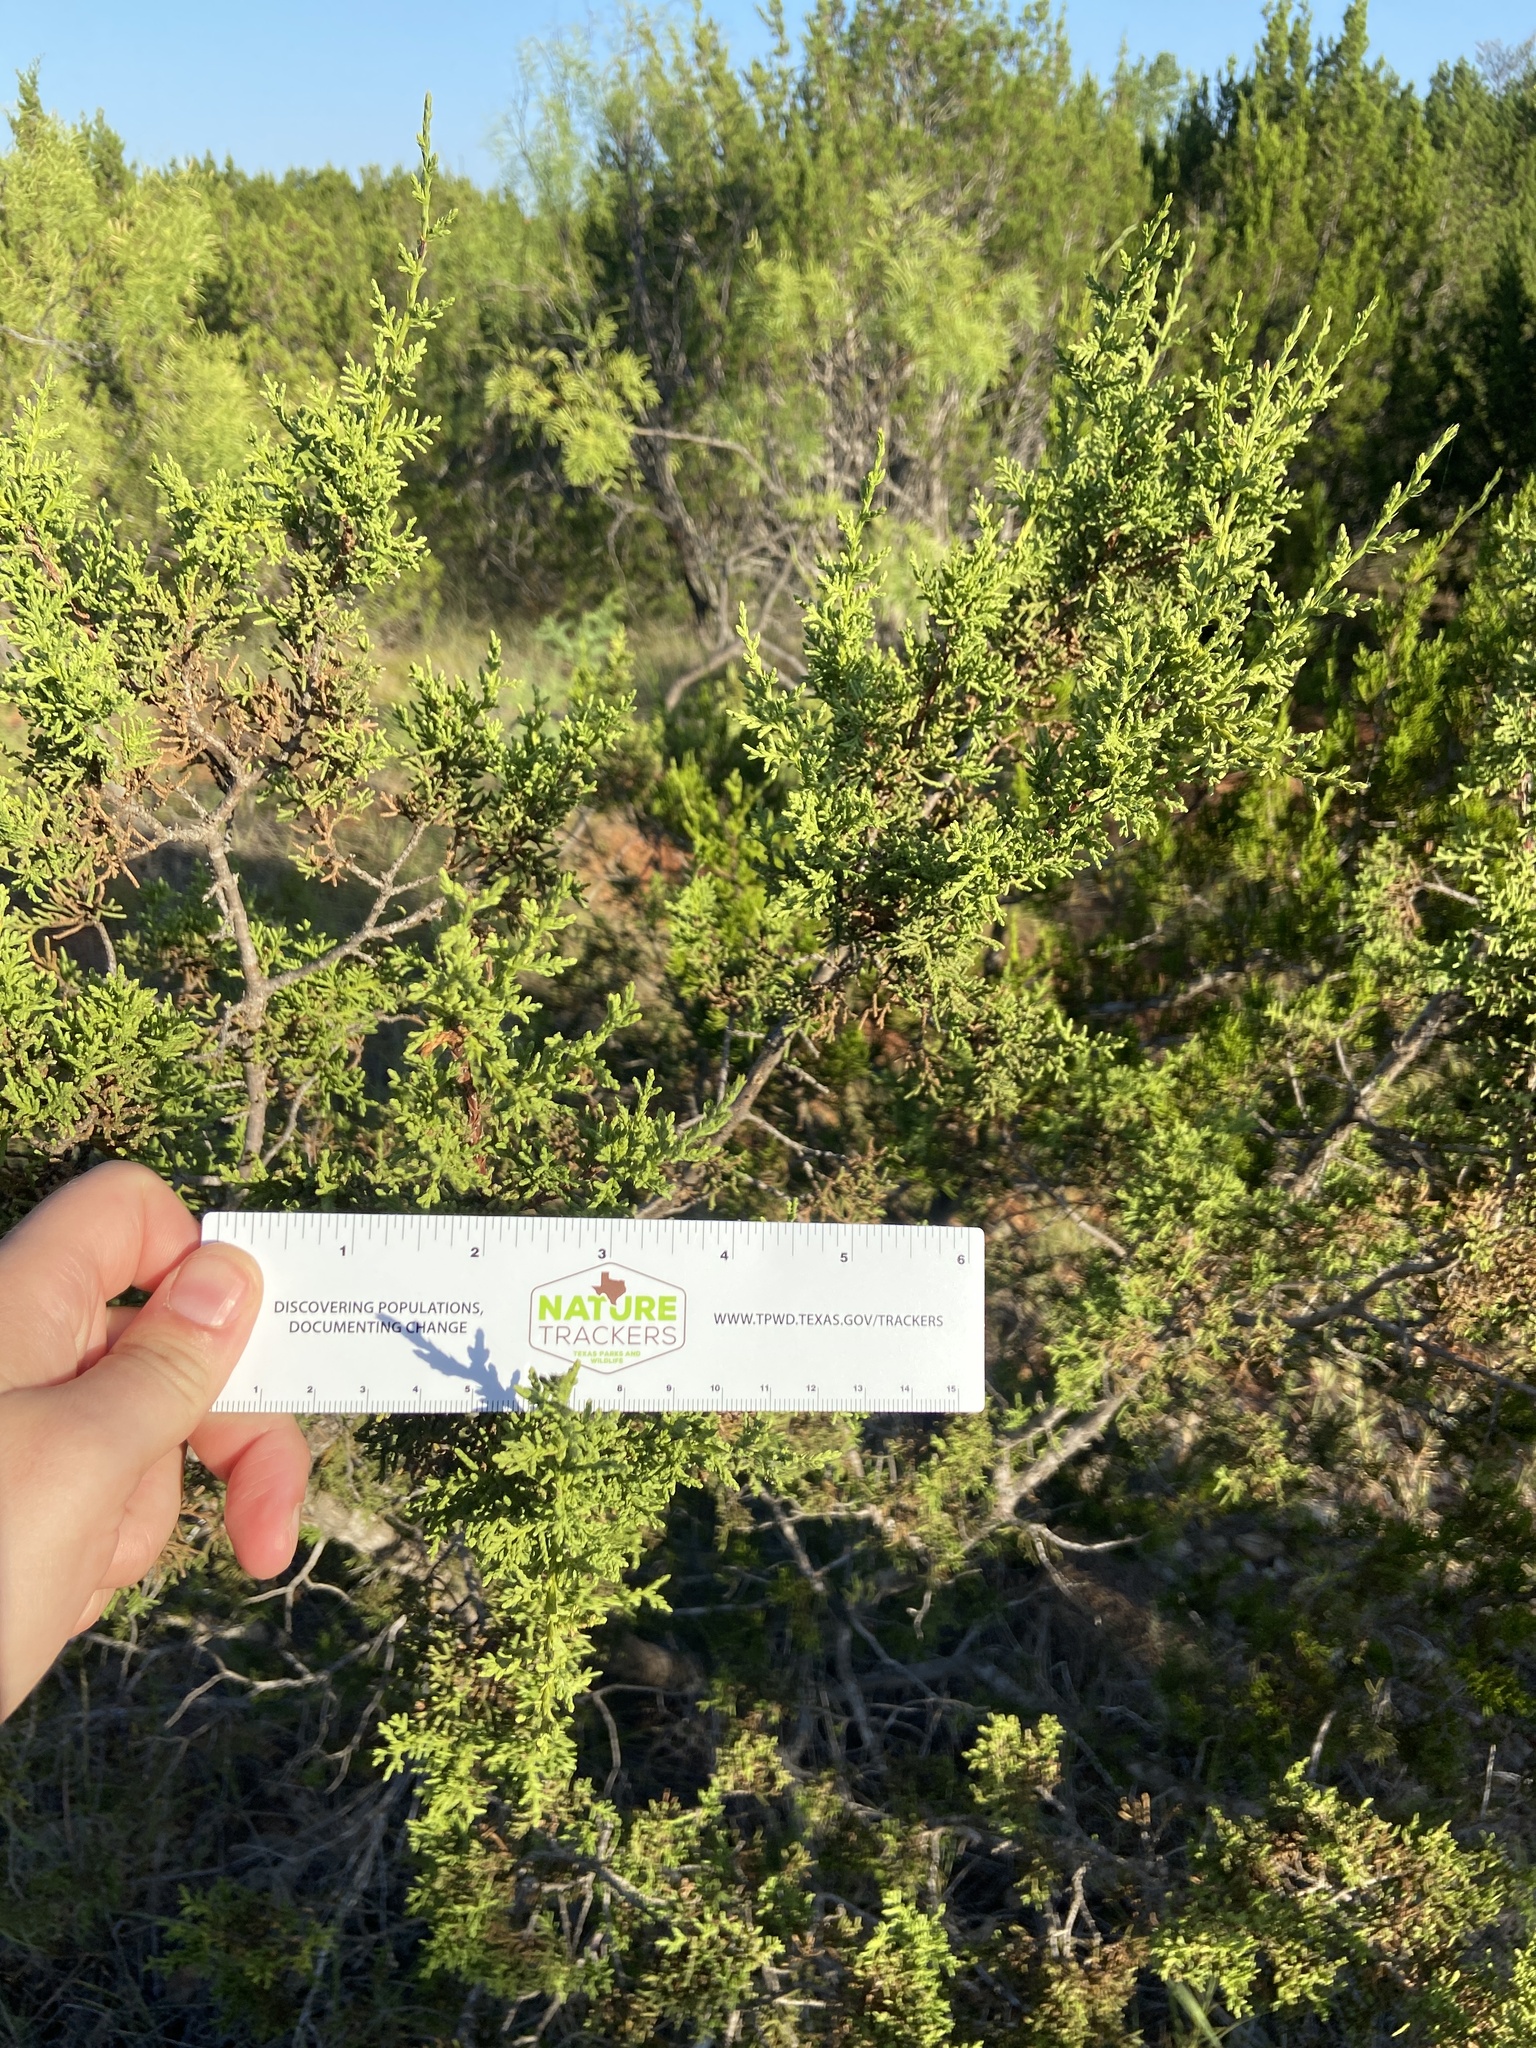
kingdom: Plantae
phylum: Tracheophyta
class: Pinopsida
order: Pinales
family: Cupressaceae
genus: Juniperus
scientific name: Juniperus ashei
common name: Mexican juniper
